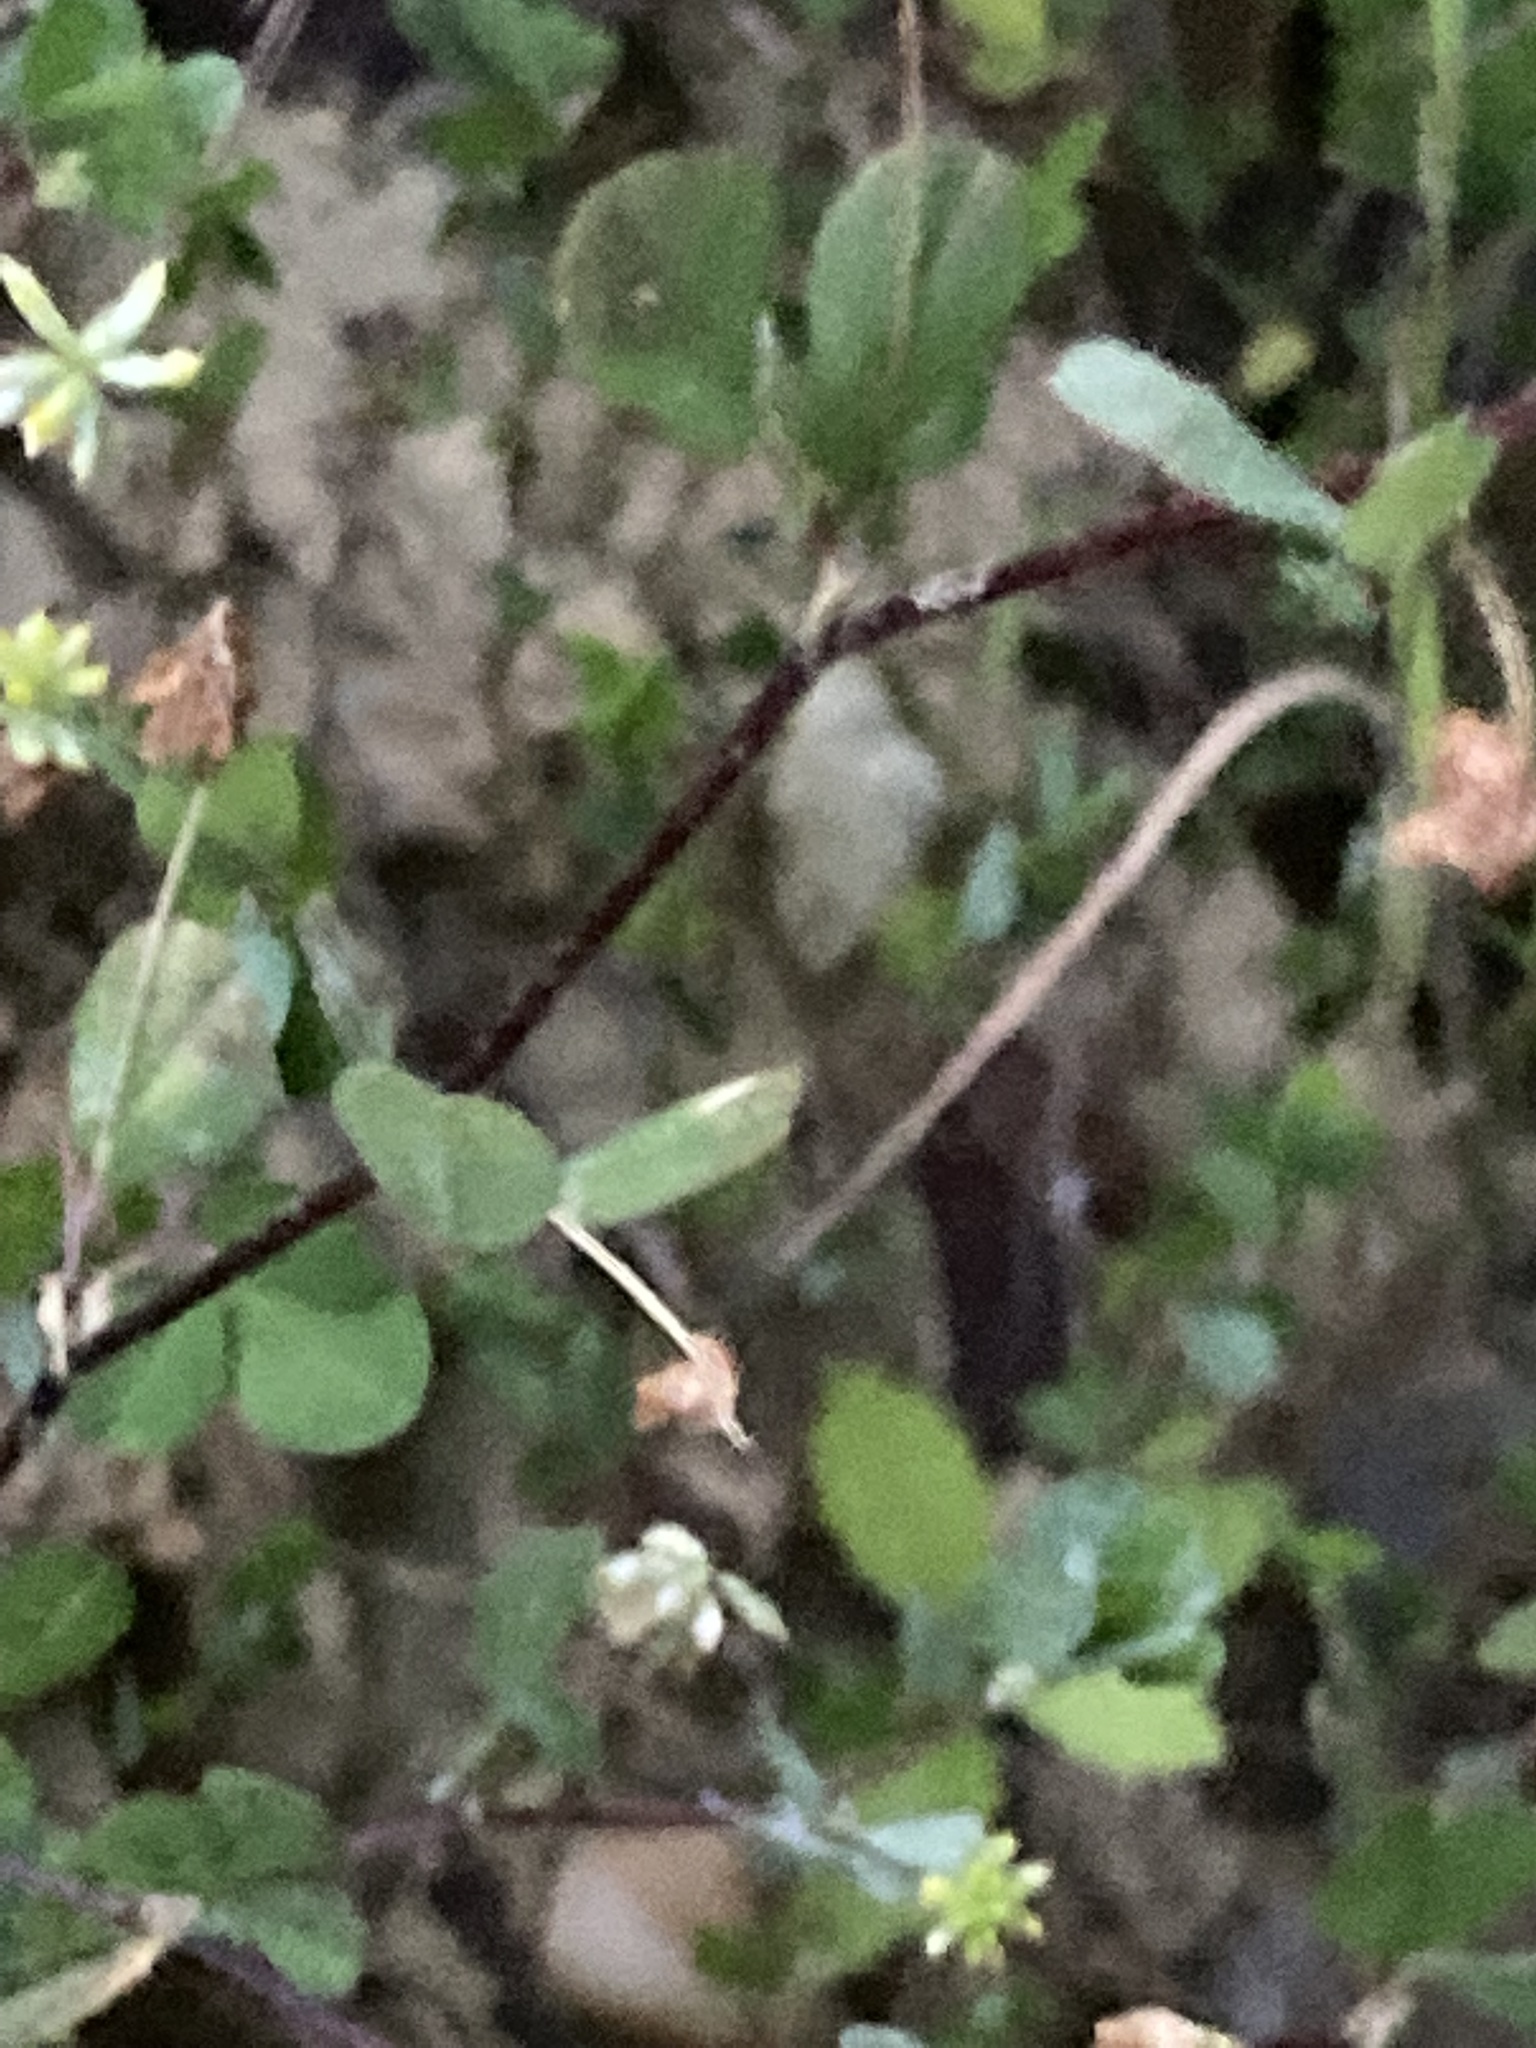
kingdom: Plantae
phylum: Tracheophyta
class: Magnoliopsida
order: Fabales
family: Fabaceae
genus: Trifolium
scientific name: Trifolium dubium
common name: Suckling clover
